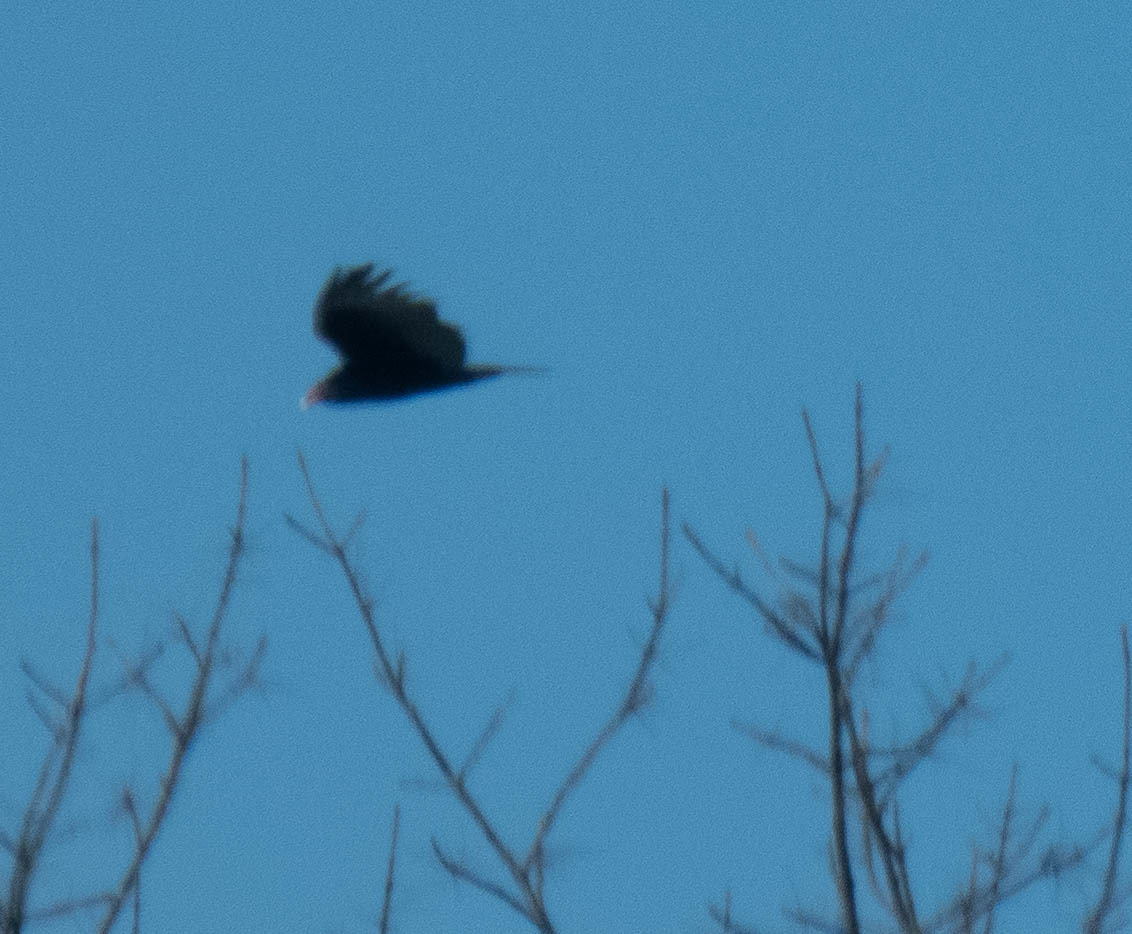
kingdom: Animalia
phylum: Chordata
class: Aves
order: Accipitriformes
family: Cathartidae
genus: Cathartes
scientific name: Cathartes aura
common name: Turkey vulture
